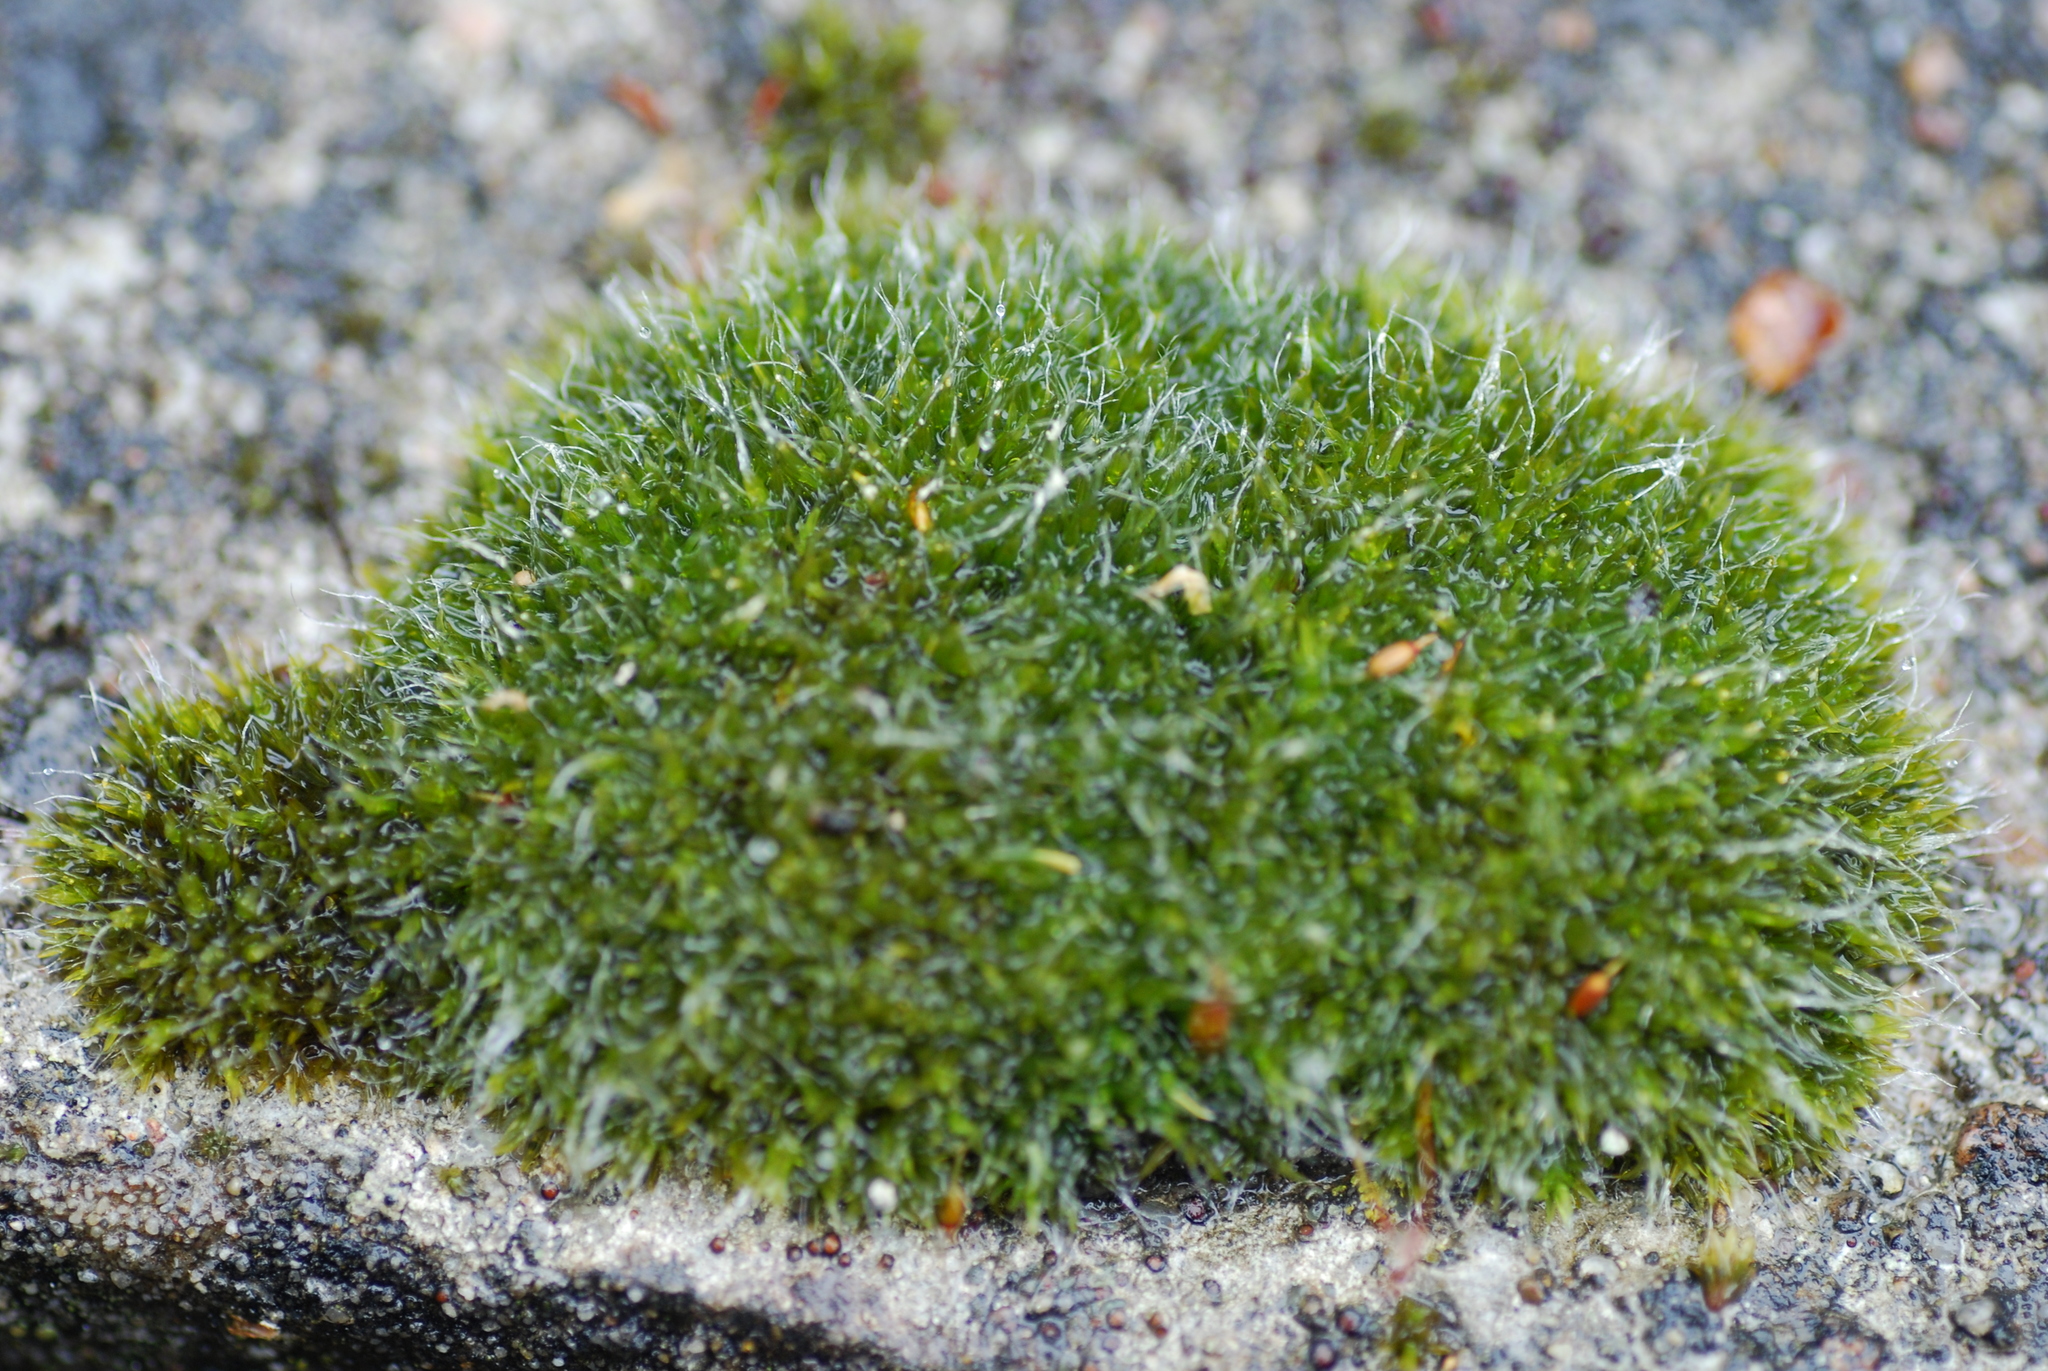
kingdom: Plantae
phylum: Bryophyta
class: Bryopsida
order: Grimmiales
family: Grimmiaceae
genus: Grimmia
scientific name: Grimmia pulvinata
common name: Grey-cushioned grimmia
